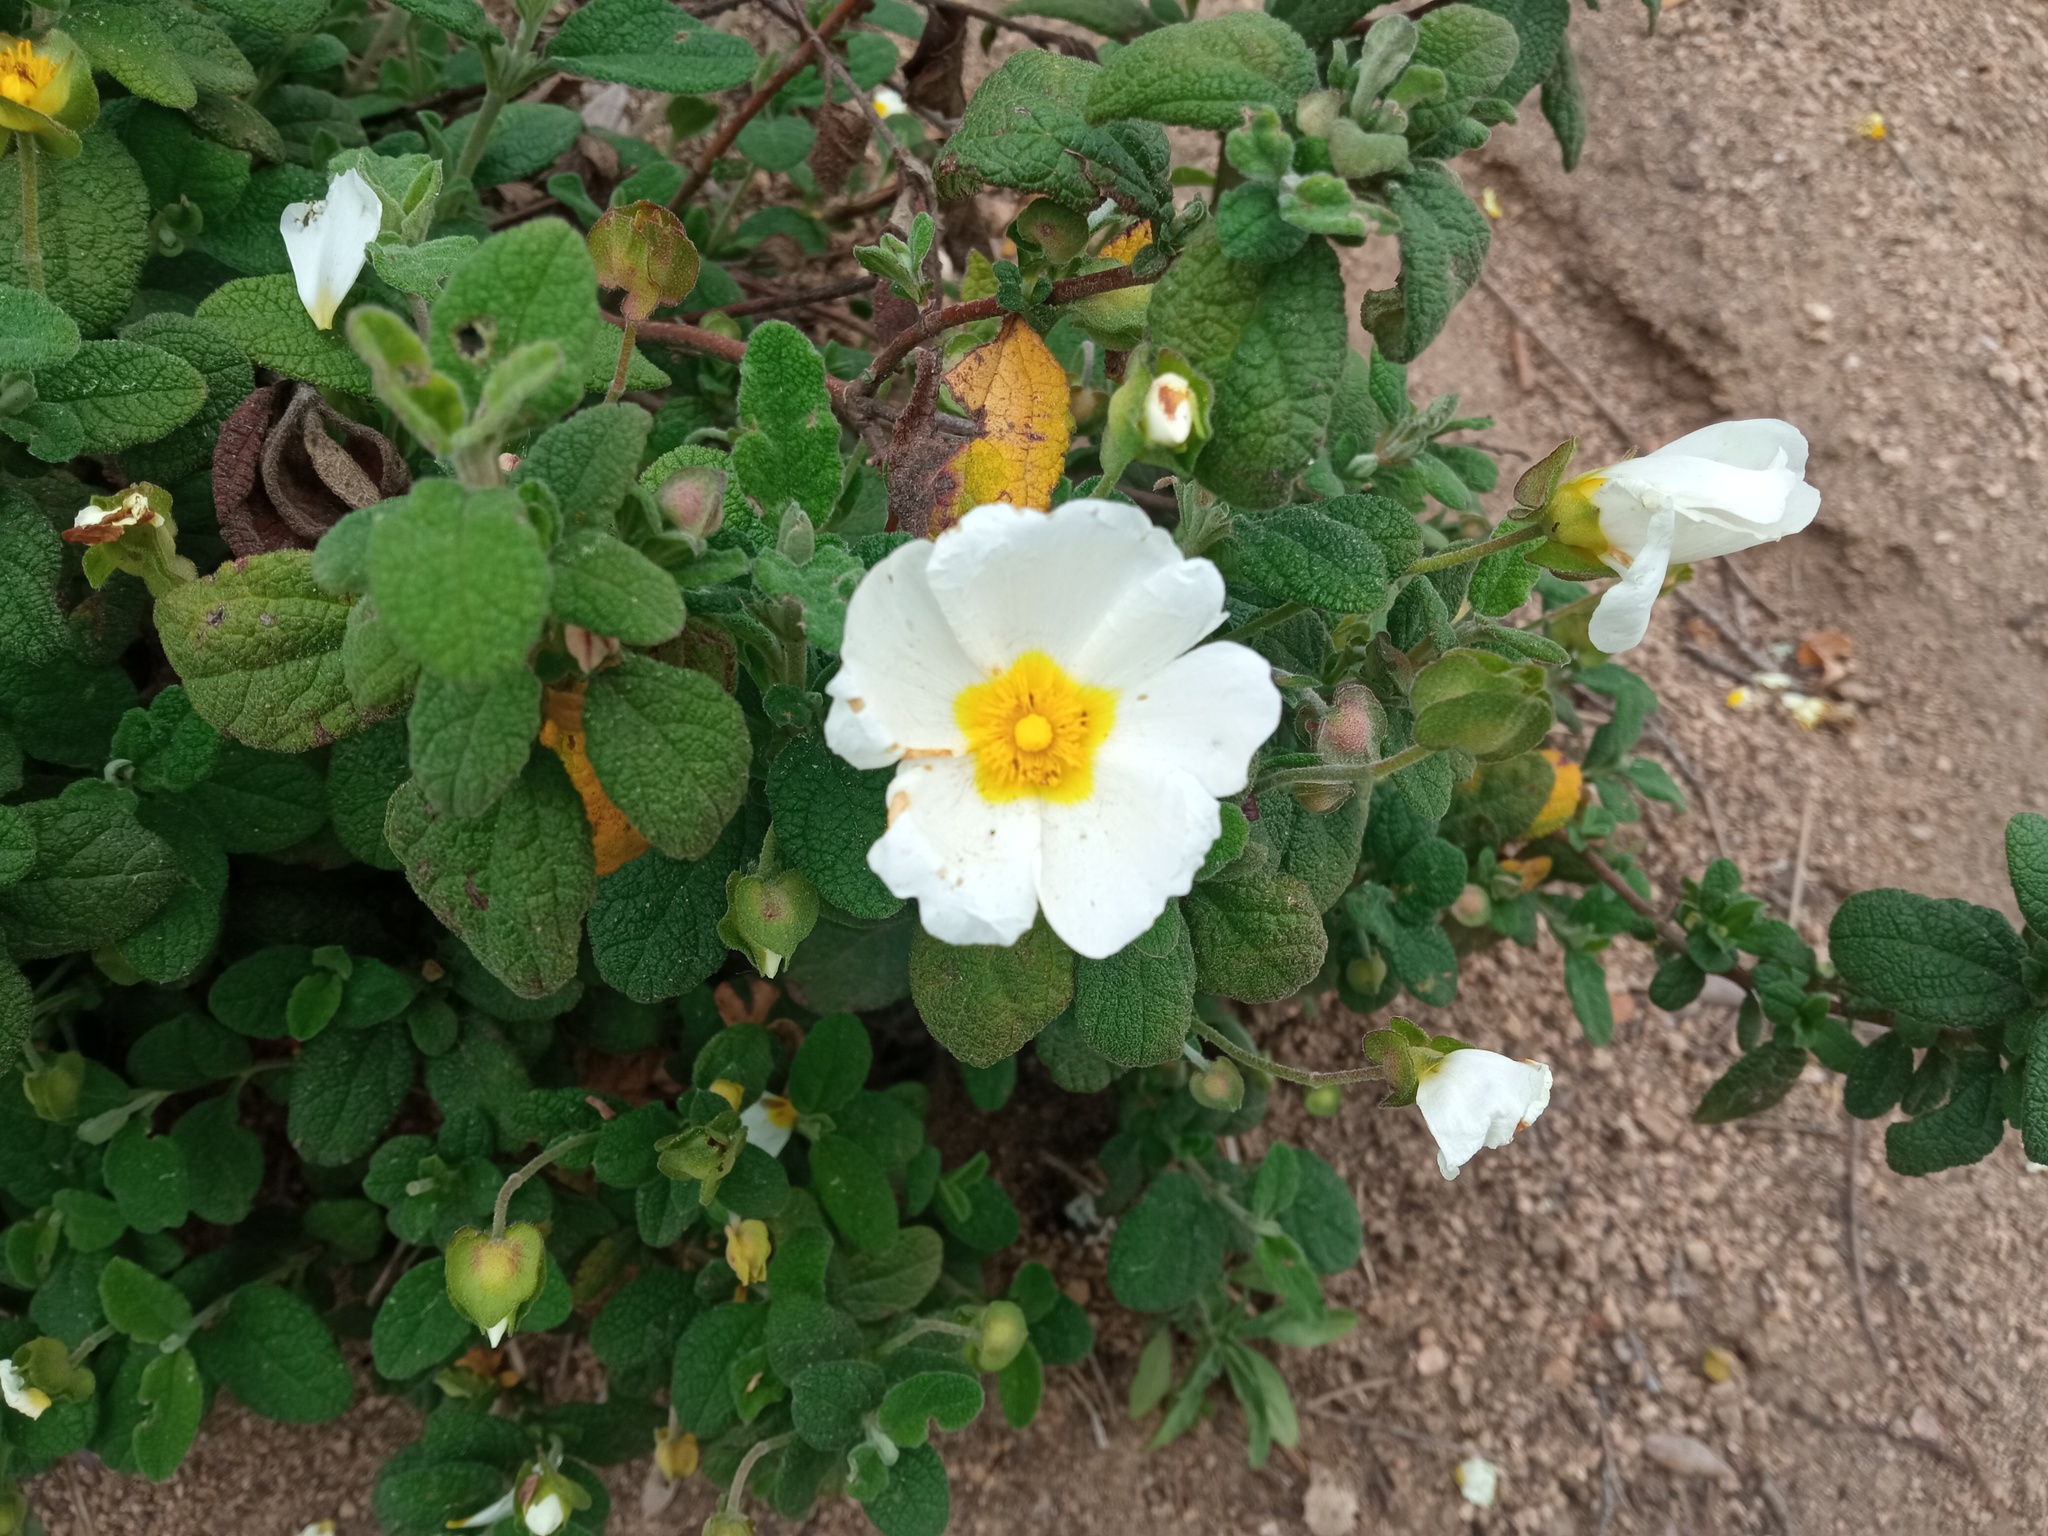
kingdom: Plantae
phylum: Tracheophyta
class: Magnoliopsida
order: Malvales
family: Cistaceae
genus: Cistus
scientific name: Cistus salviifolius
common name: Salvia cistus
